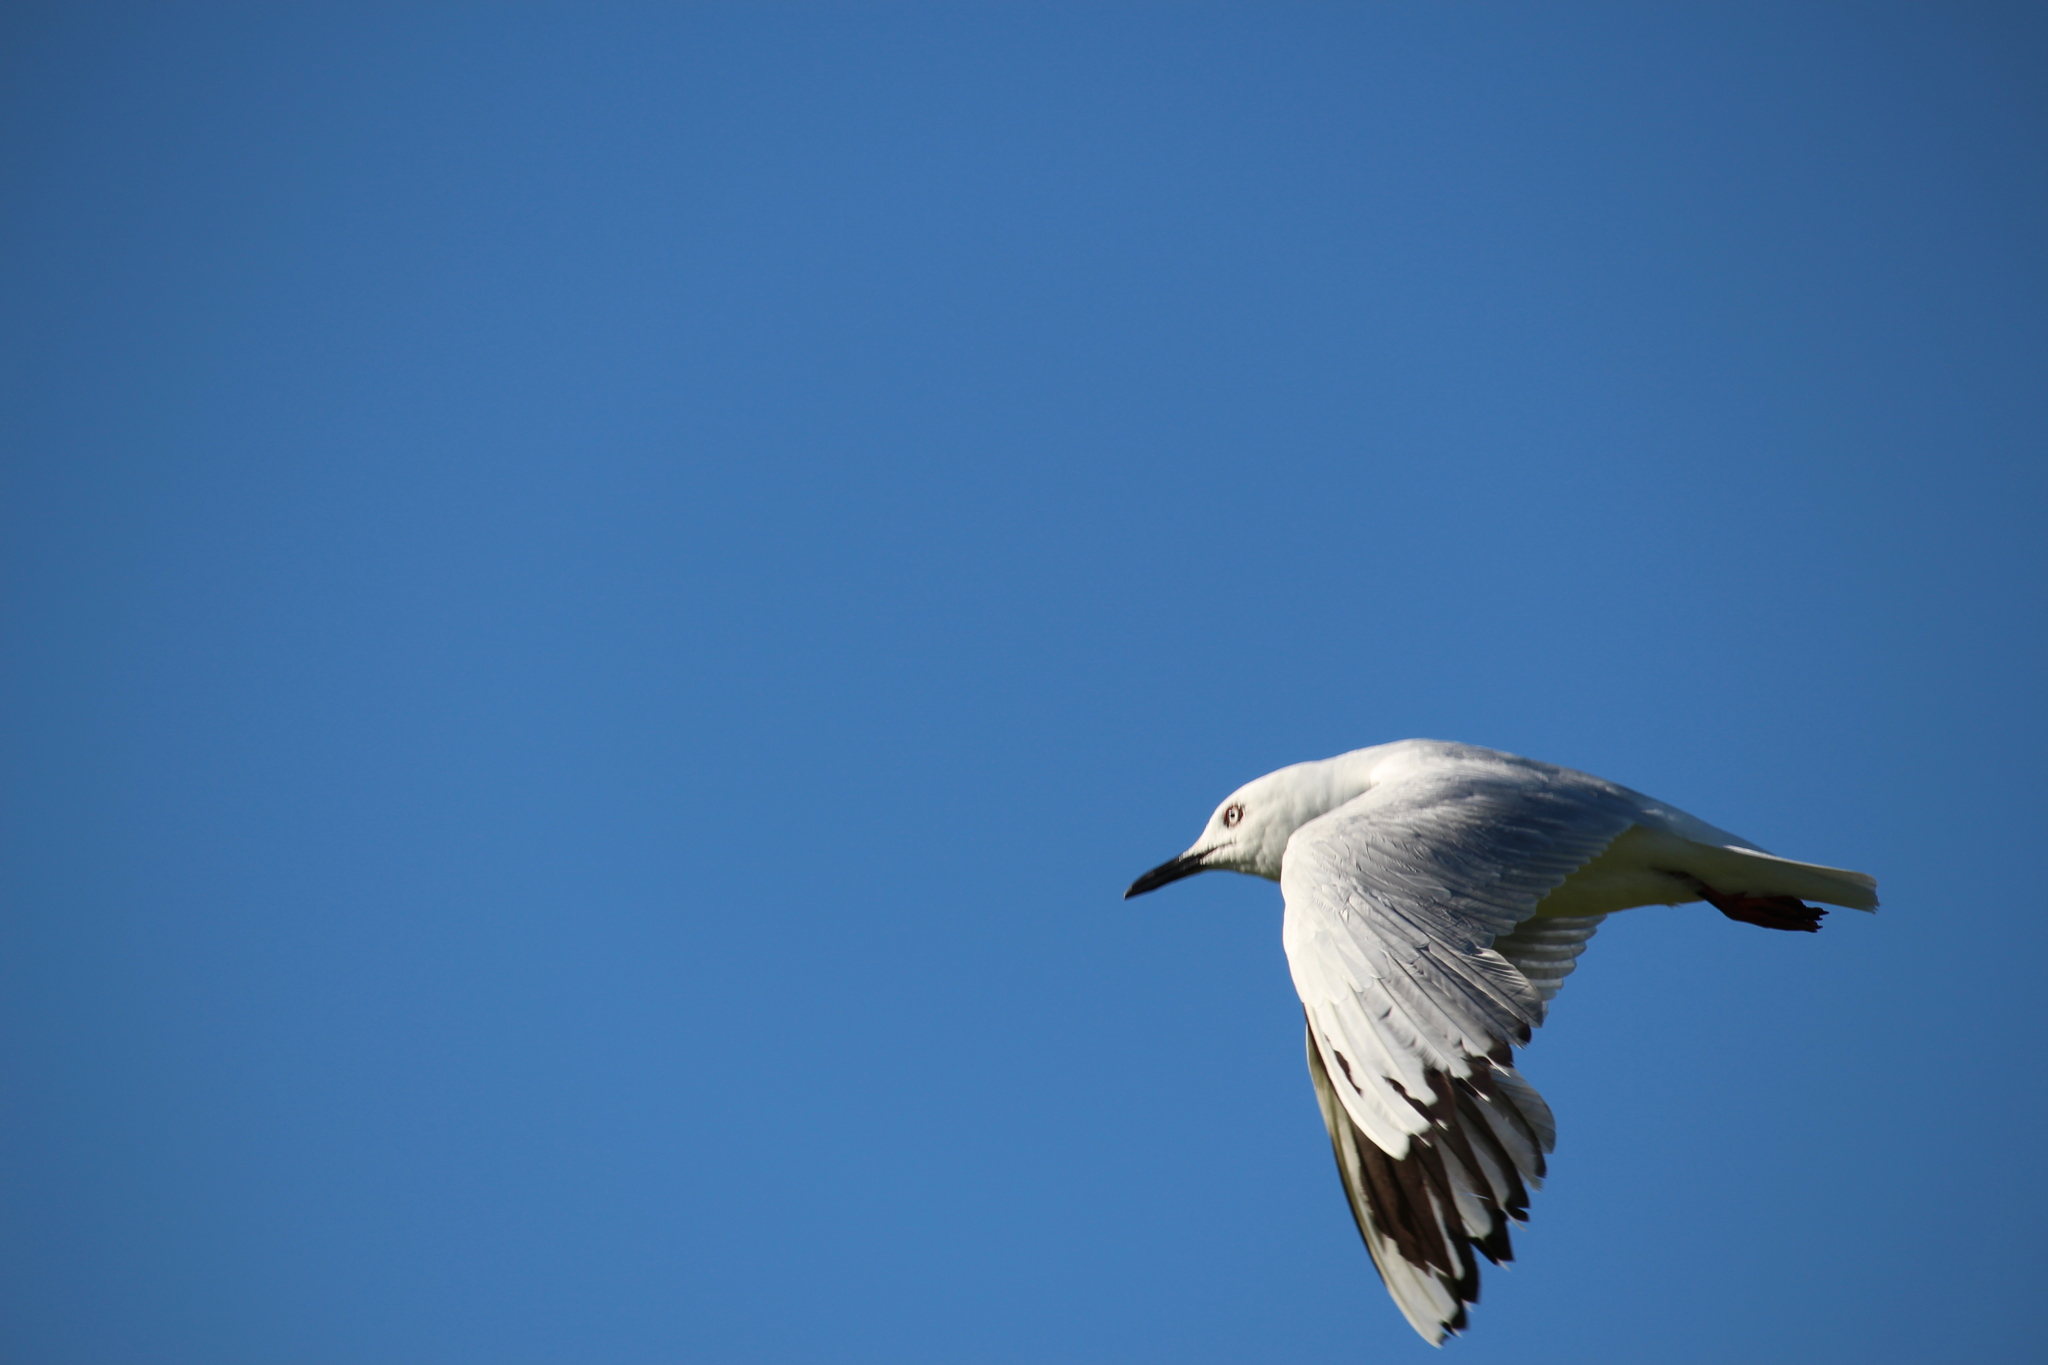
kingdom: Animalia
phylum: Chordata
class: Aves
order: Charadriiformes
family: Laridae
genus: Chroicocephalus
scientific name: Chroicocephalus bulleri
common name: Black-billed gull
